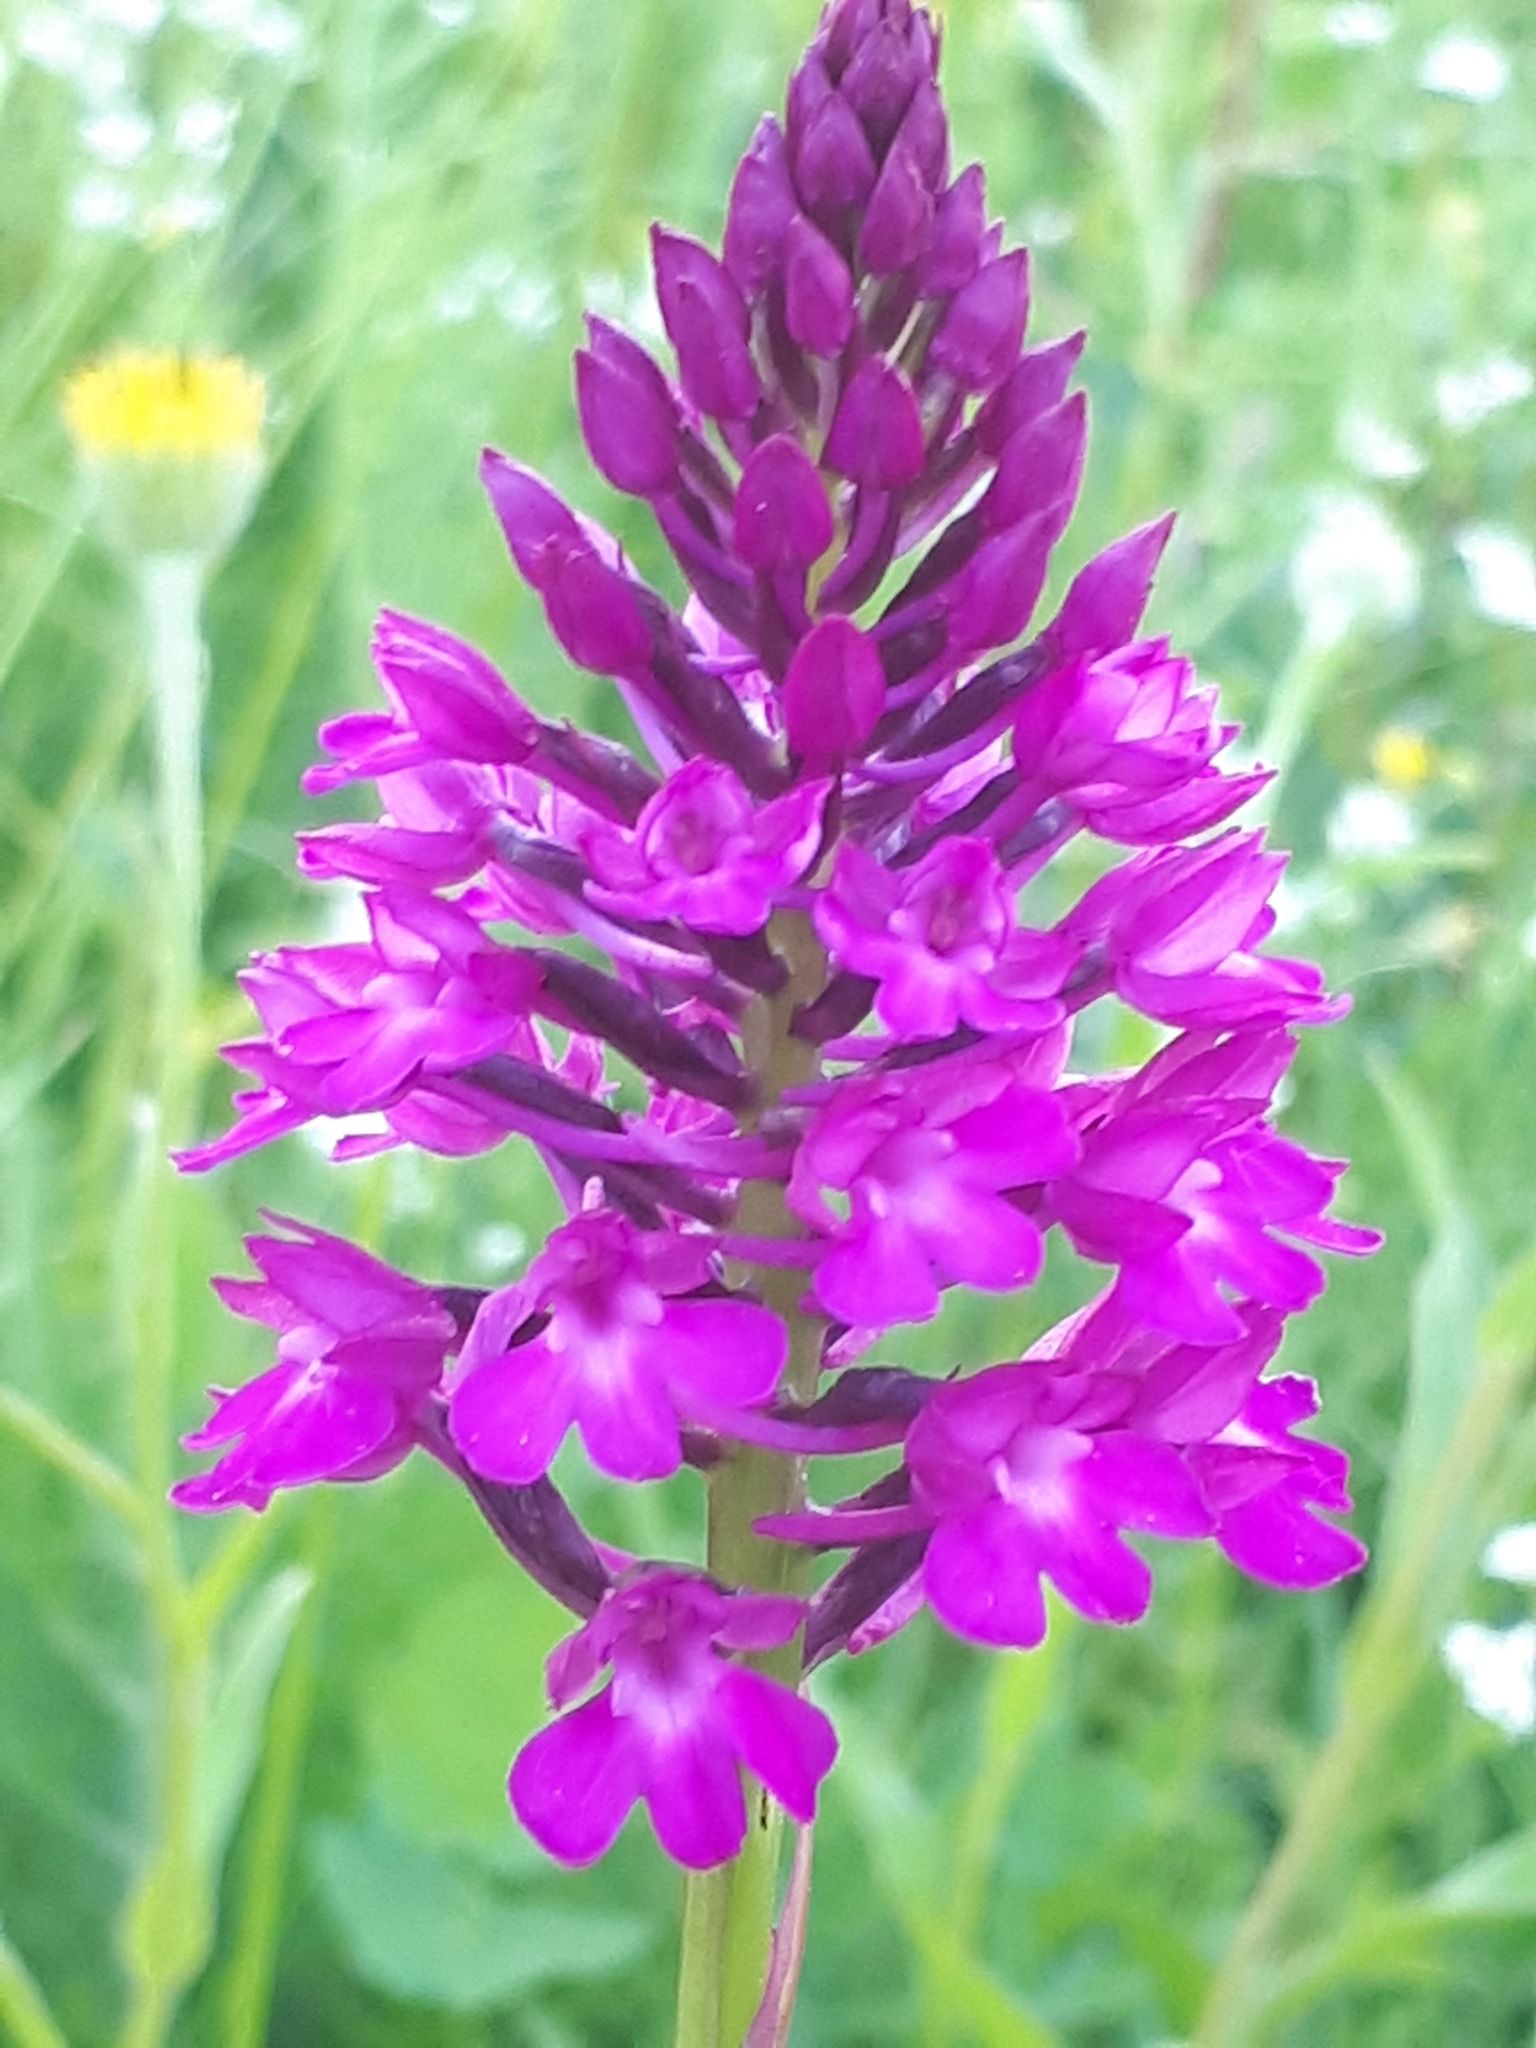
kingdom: Plantae
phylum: Tracheophyta
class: Liliopsida
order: Asparagales
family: Orchidaceae
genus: Anacamptis
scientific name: Anacamptis pyramidalis
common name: Pyramidal orchid
